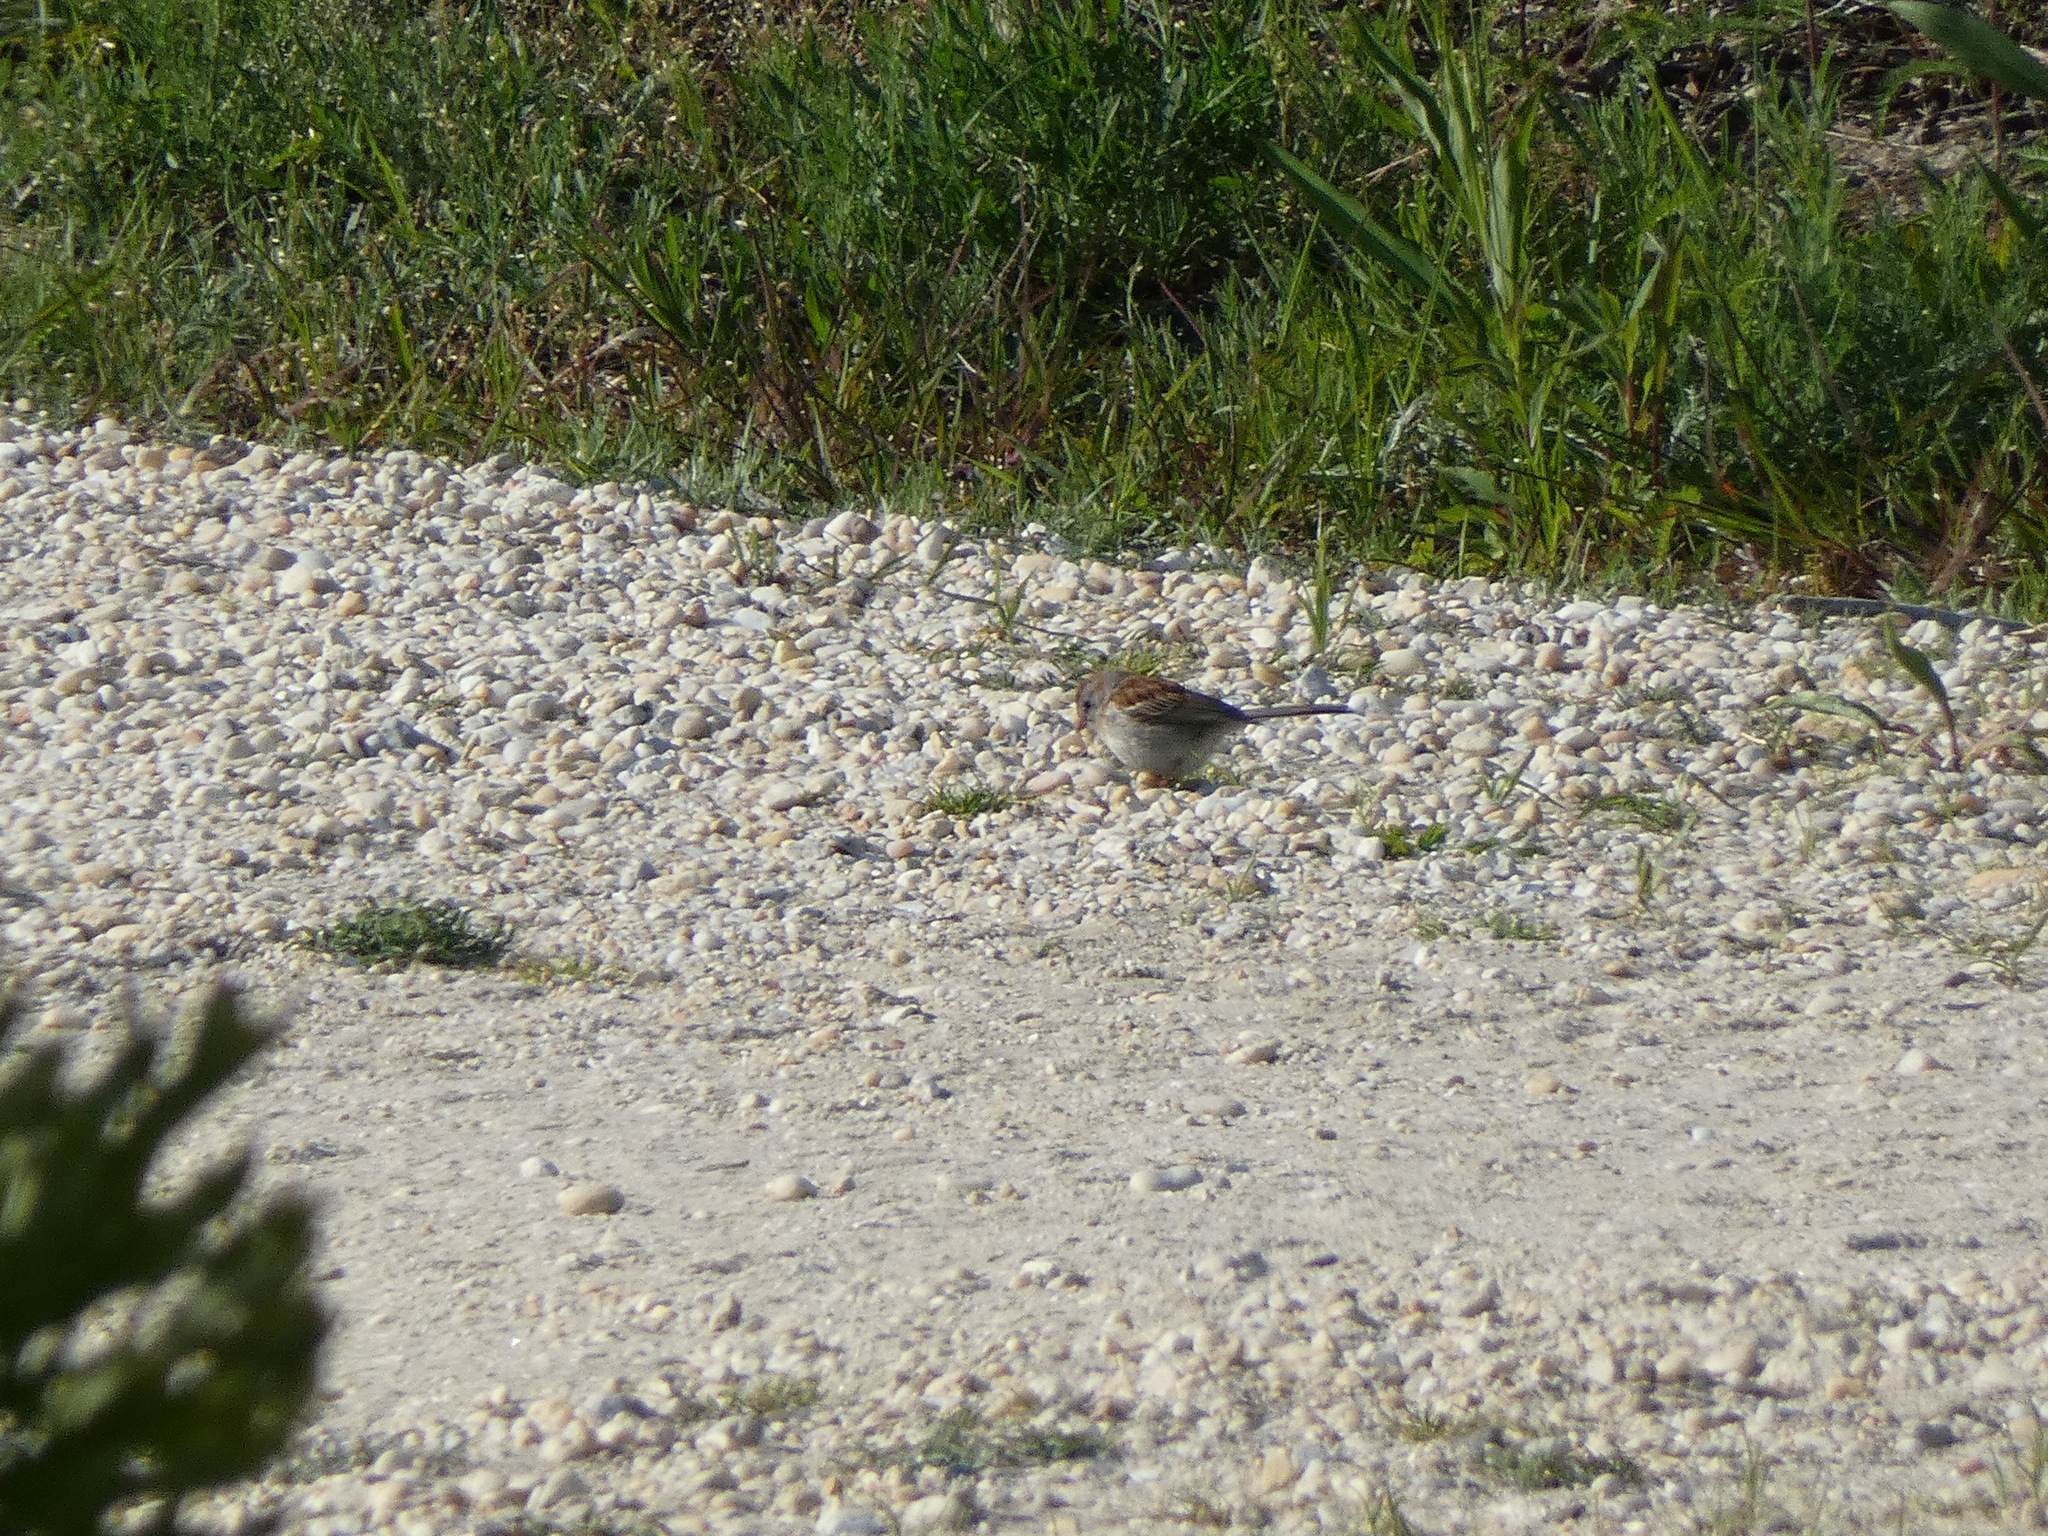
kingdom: Animalia
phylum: Chordata
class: Aves
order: Passeriformes
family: Passerellidae
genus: Spizella
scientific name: Spizella pusilla
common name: Field sparrow
